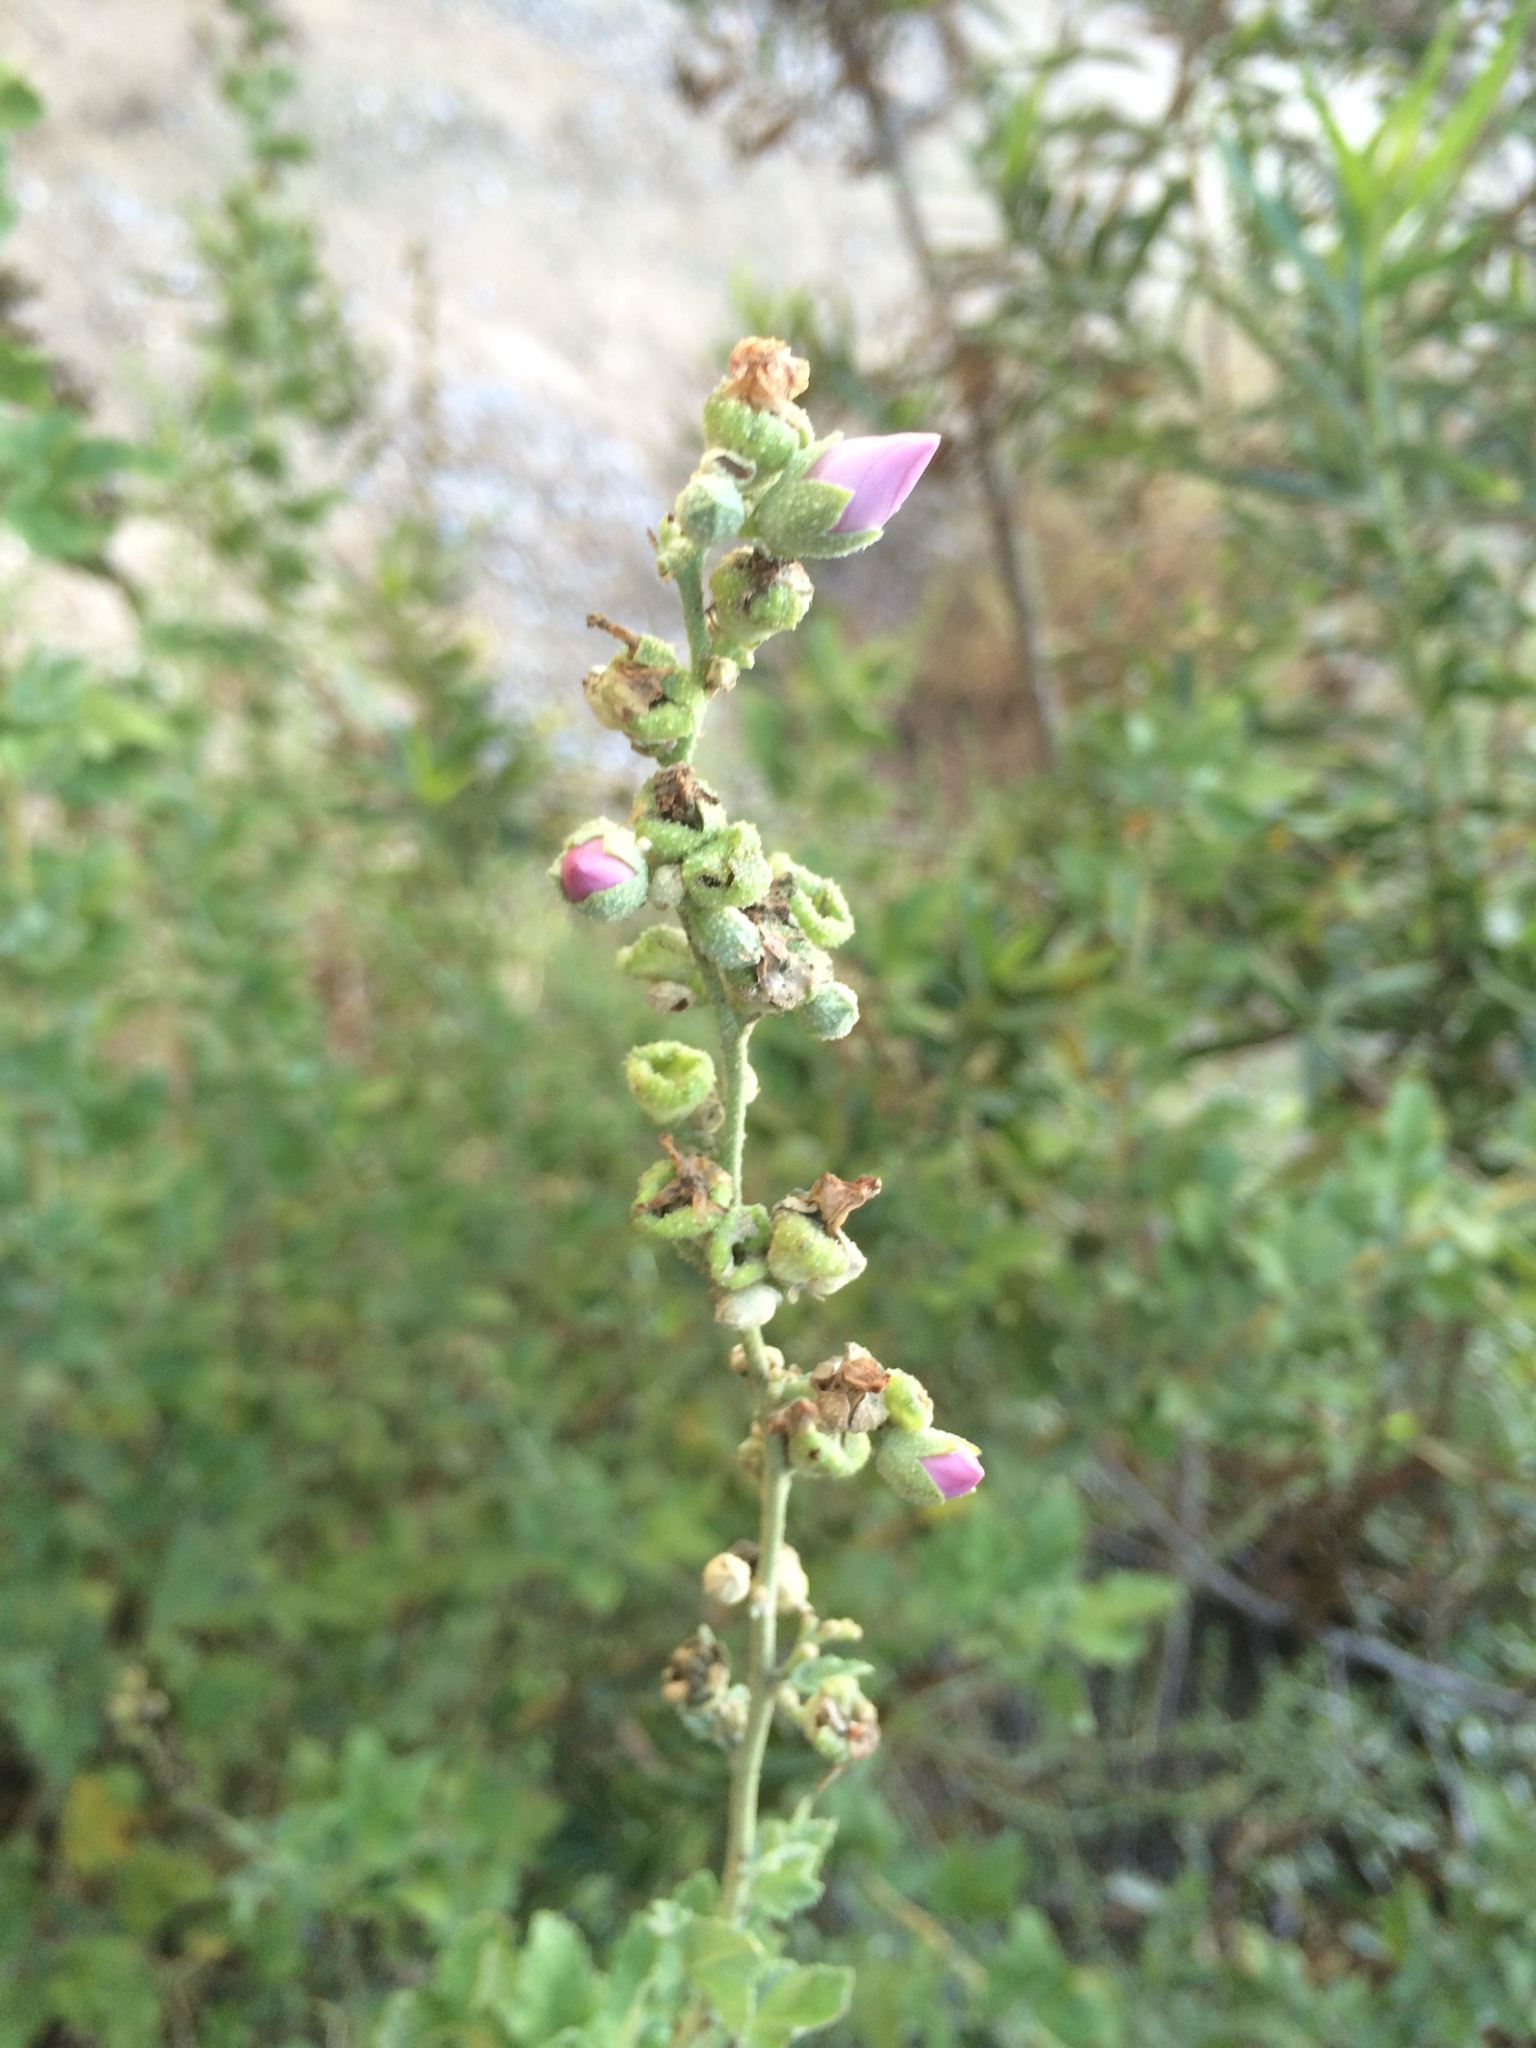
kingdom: Plantae
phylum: Tracheophyta
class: Magnoliopsida
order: Malvales
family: Malvaceae
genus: Malacothamnus
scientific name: Malacothamnus fasciculatus
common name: Sant cruz island bush-mallow
